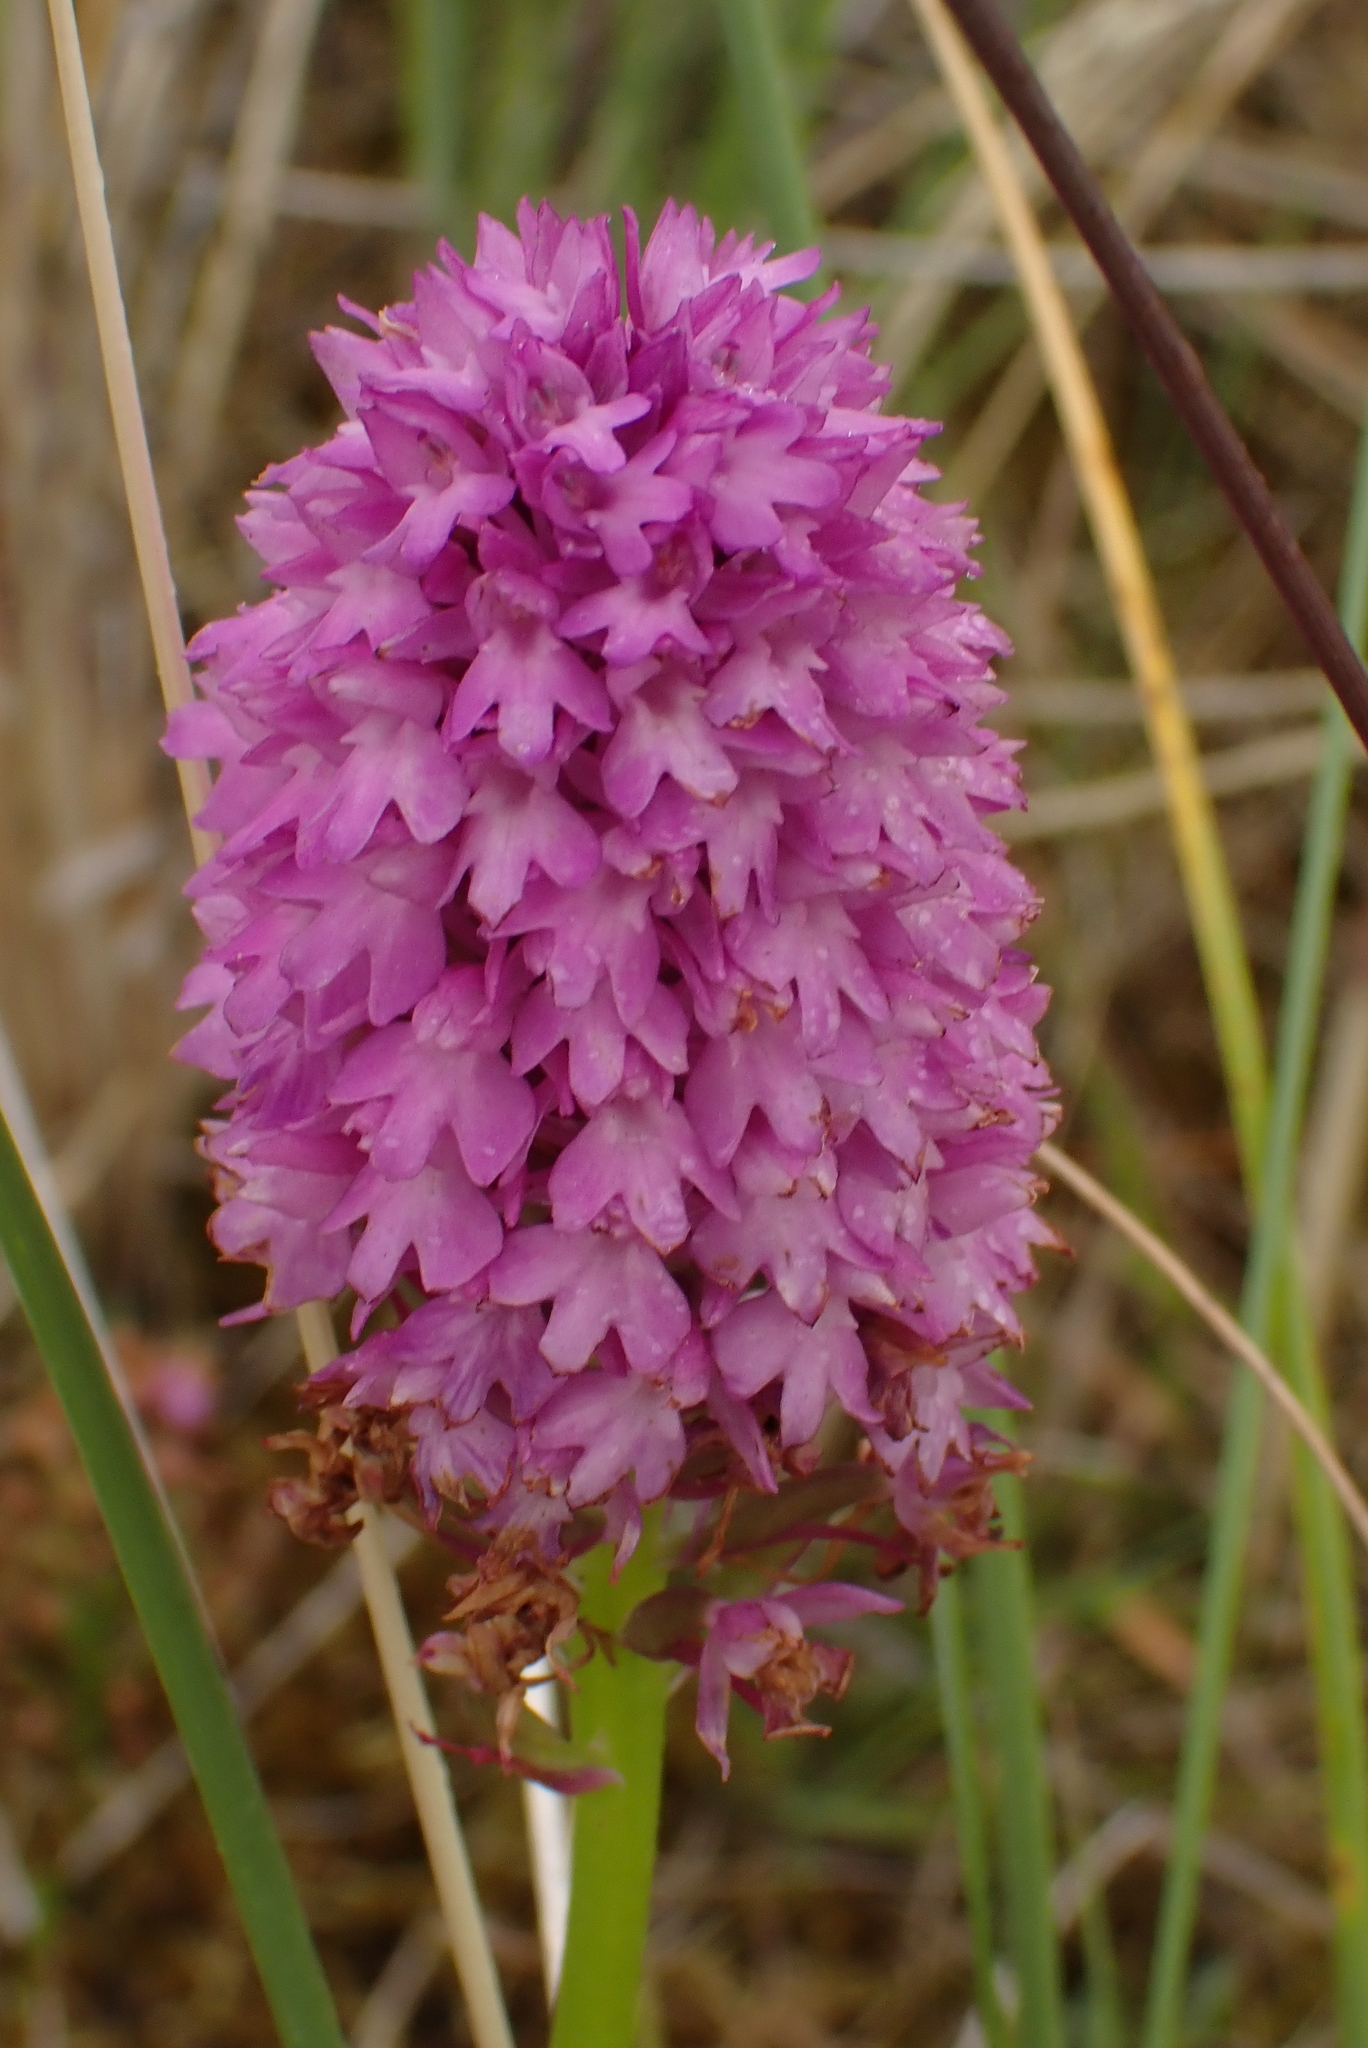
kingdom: Plantae
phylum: Tracheophyta
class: Liliopsida
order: Asparagales
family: Orchidaceae
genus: Anacamptis
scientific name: Anacamptis pyramidalis
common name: Pyramidal orchid
